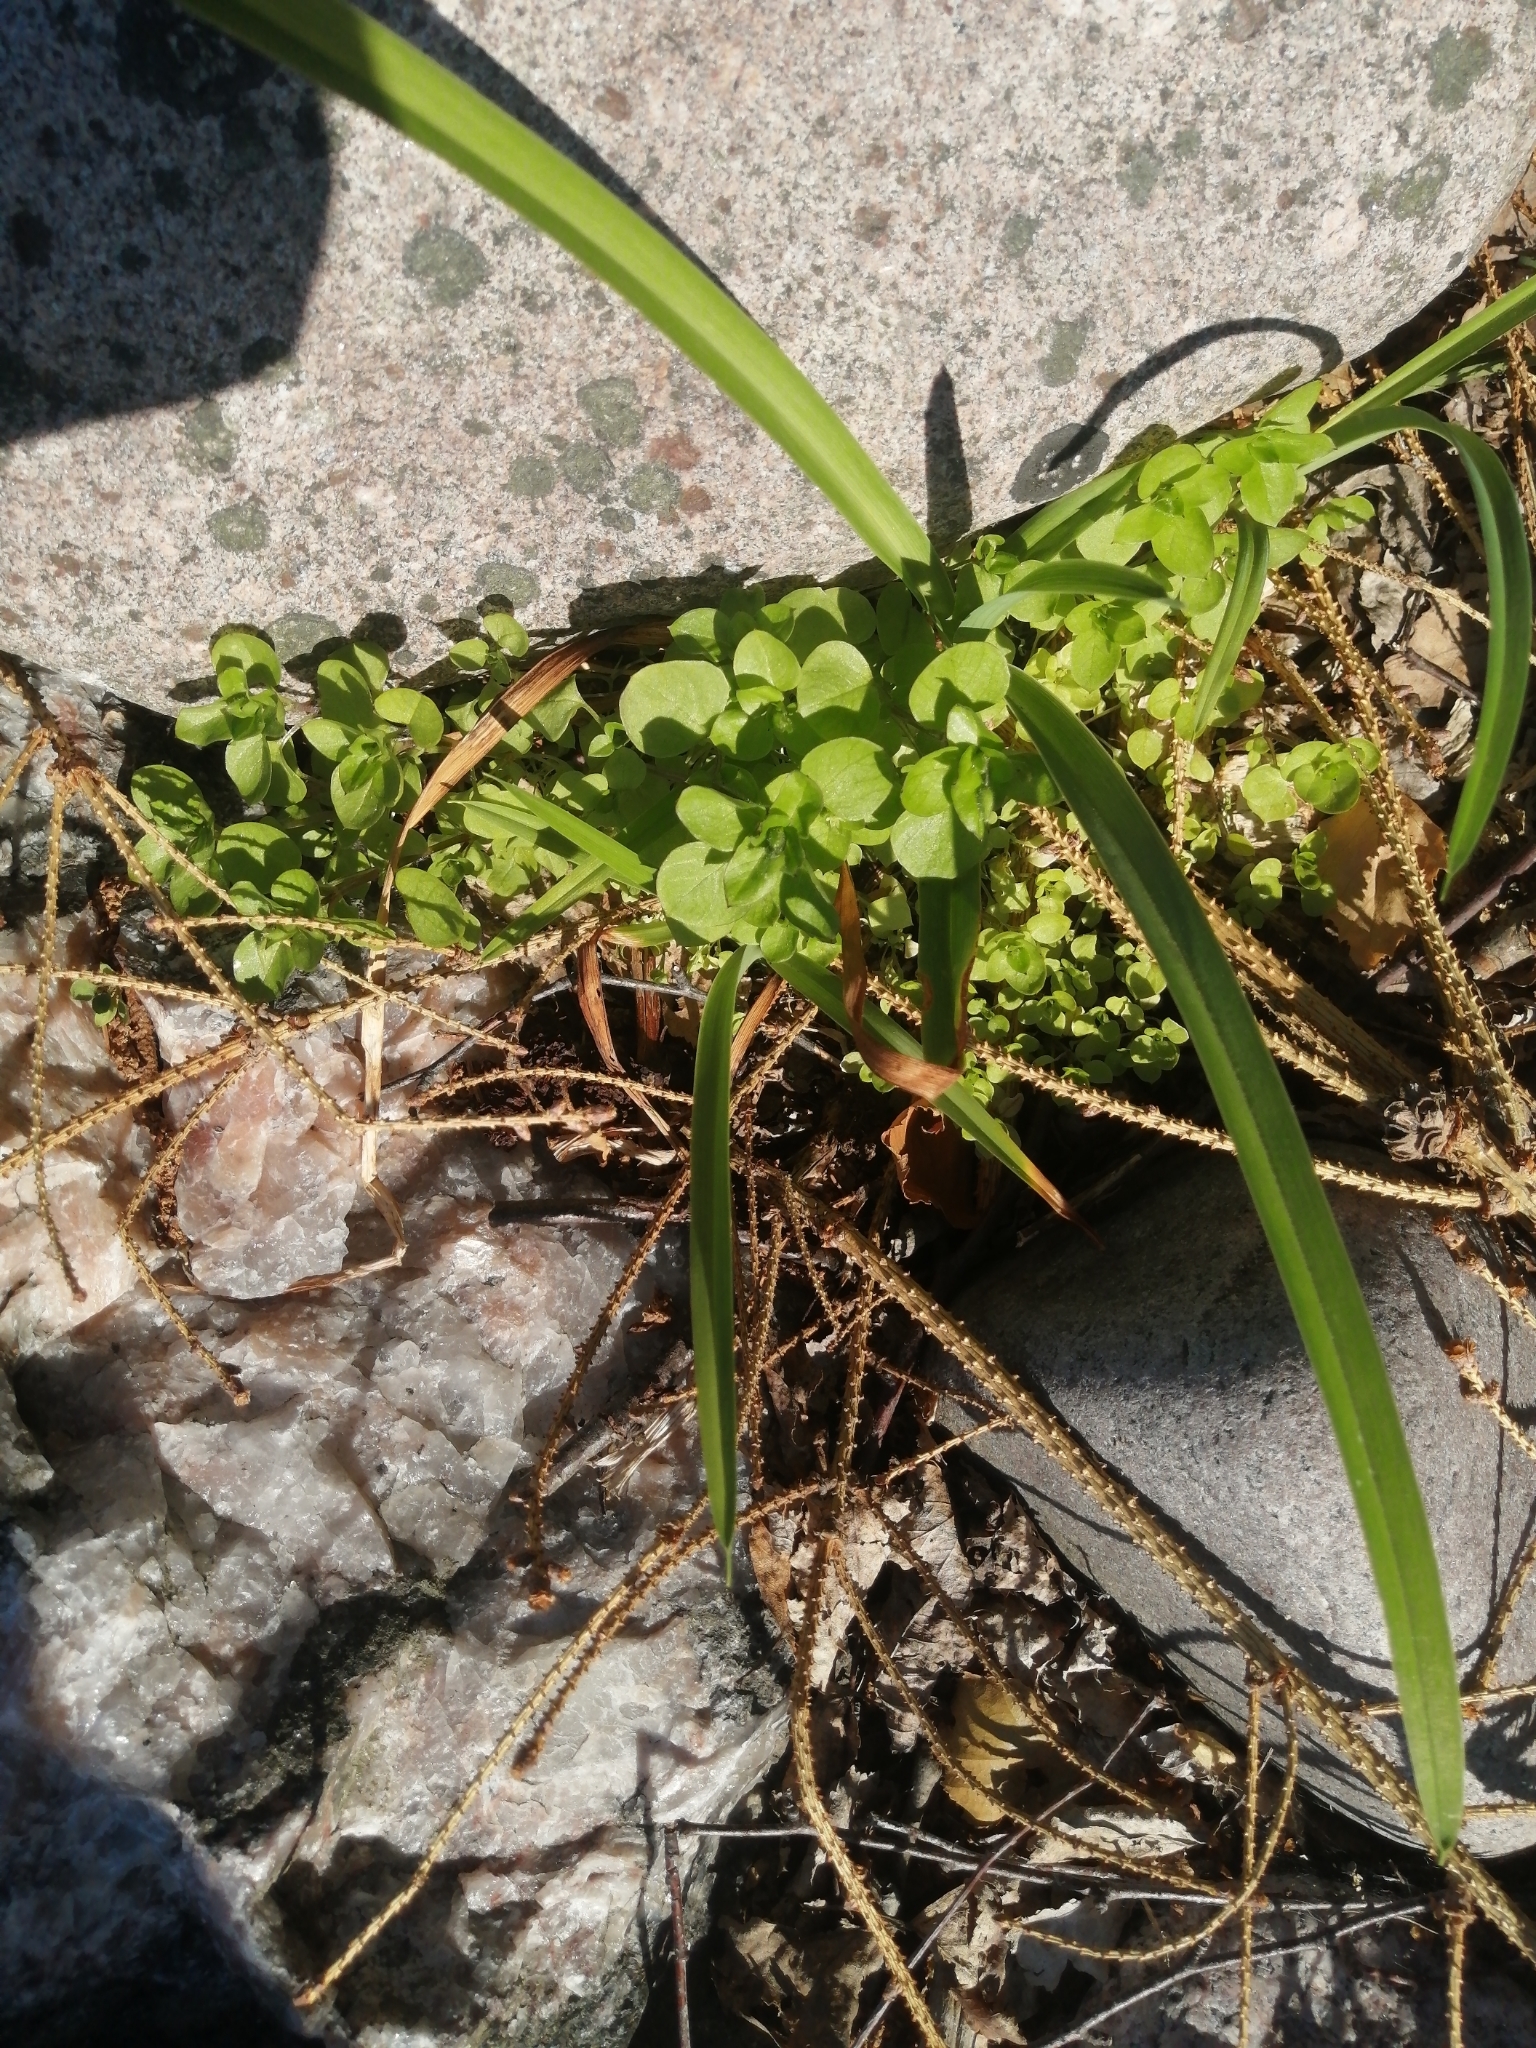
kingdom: Plantae
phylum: Tracheophyta
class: Magnoliopsida
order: Caryophyllales
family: Caryophyllaceae
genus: Stellaria
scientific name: Stellaria media
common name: Common chickweed
